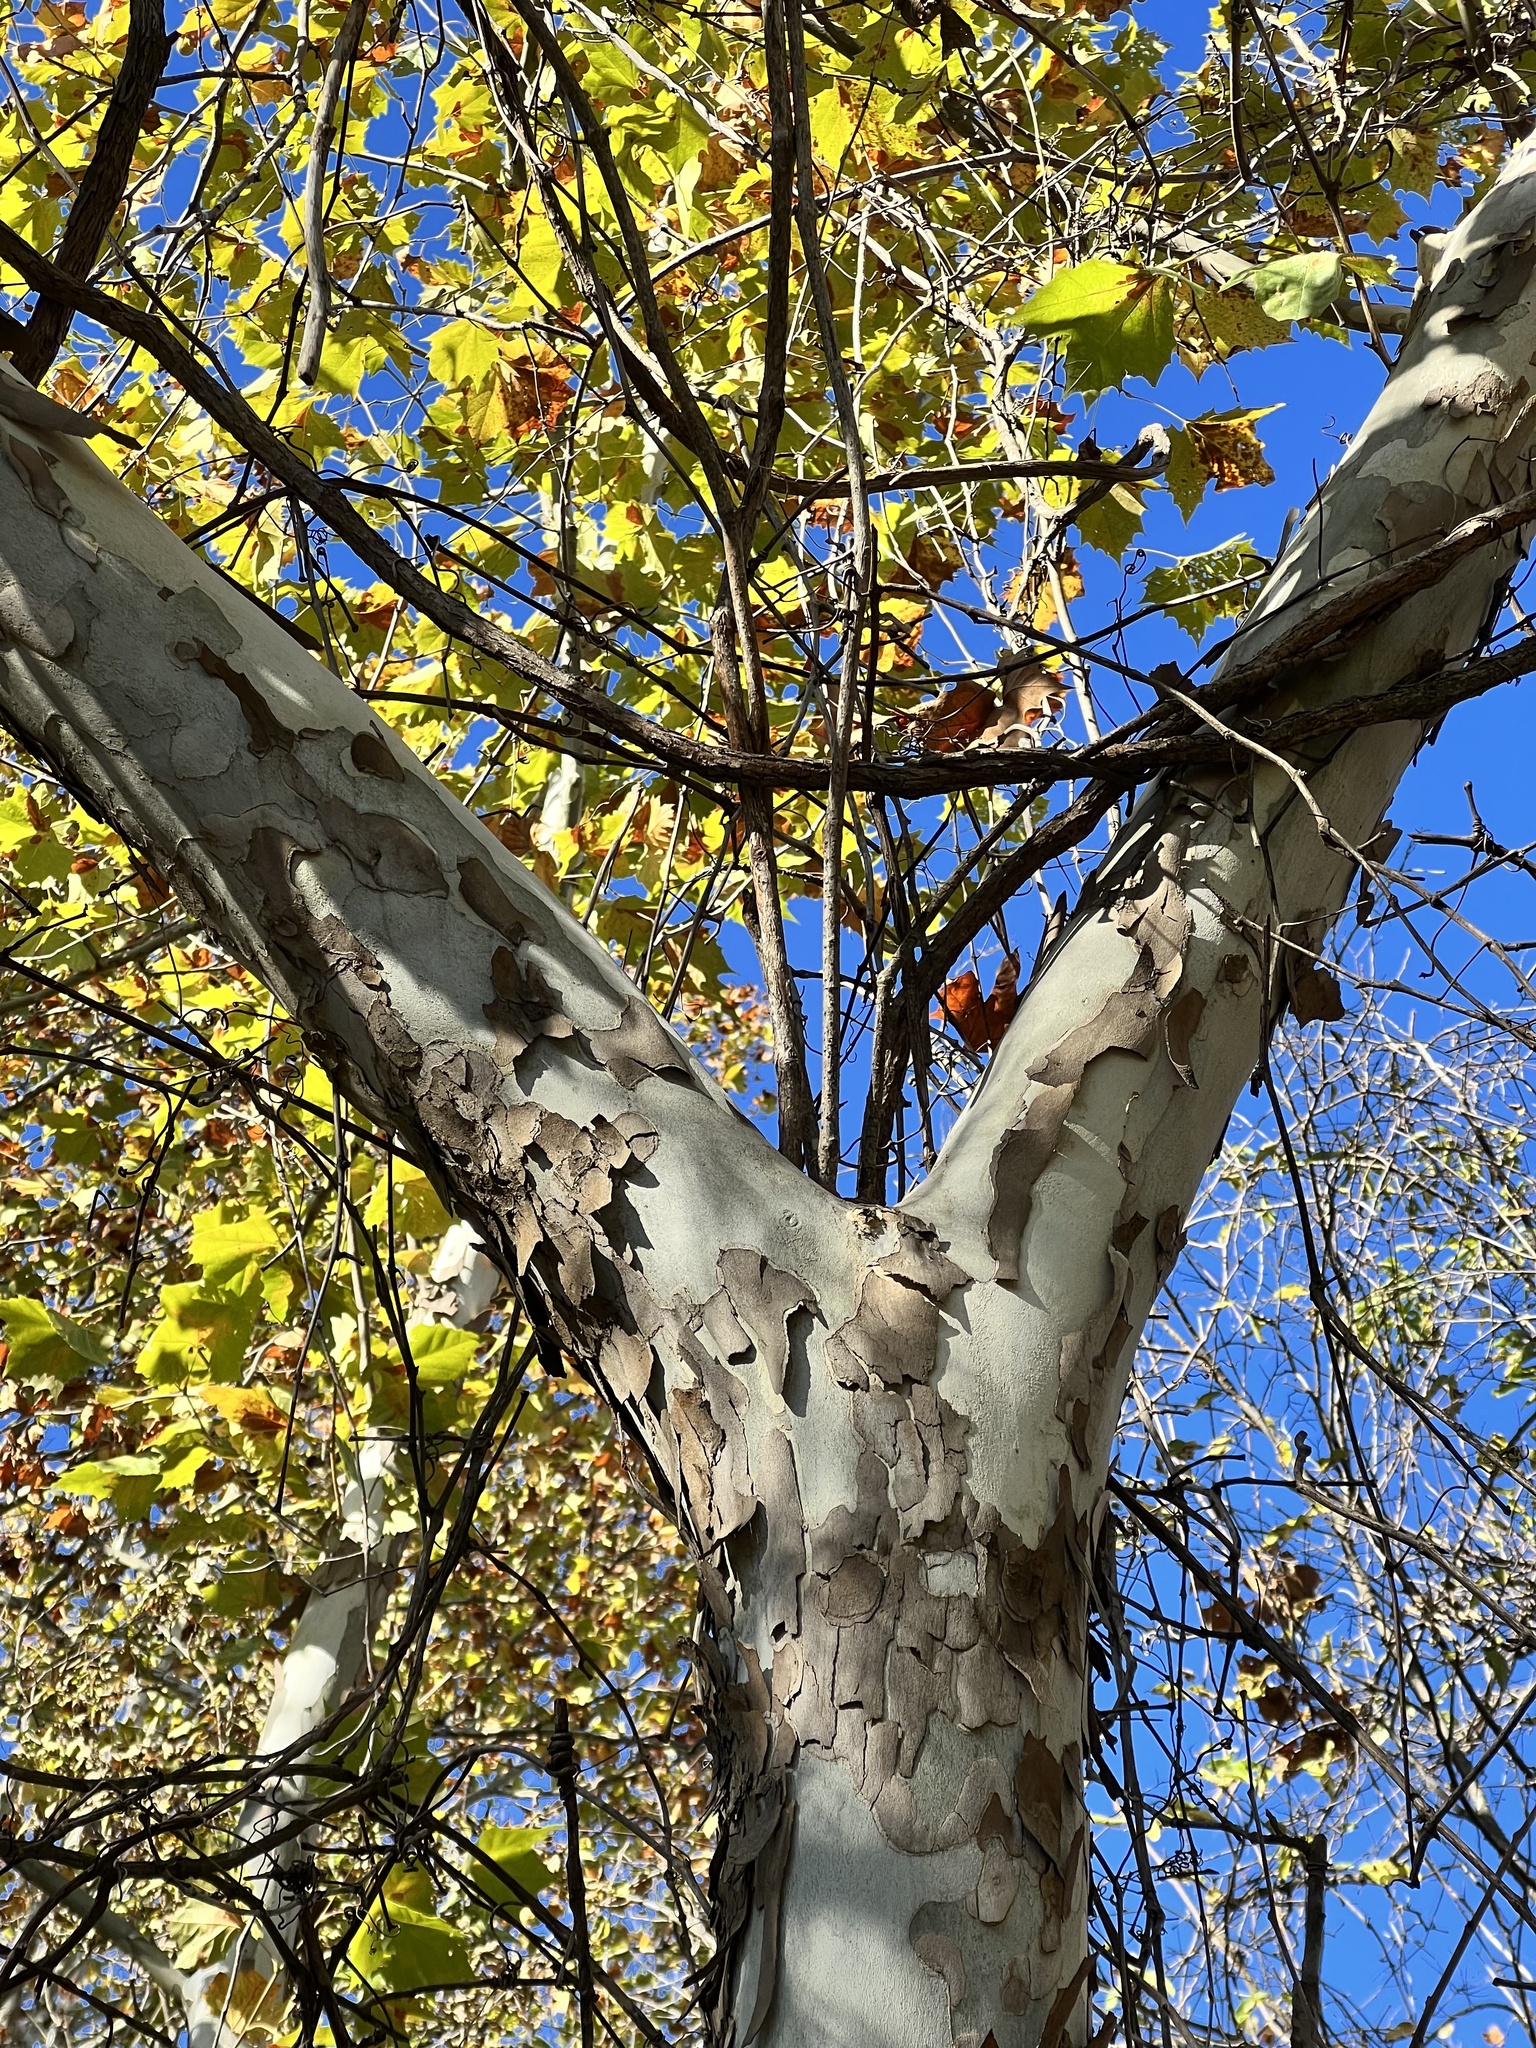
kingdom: Plantae
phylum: Tracheophyta
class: Magnoliopsida
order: Proteales
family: Platanaceae
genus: Platanus
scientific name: Platanus occidentalis
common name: American sycamore
